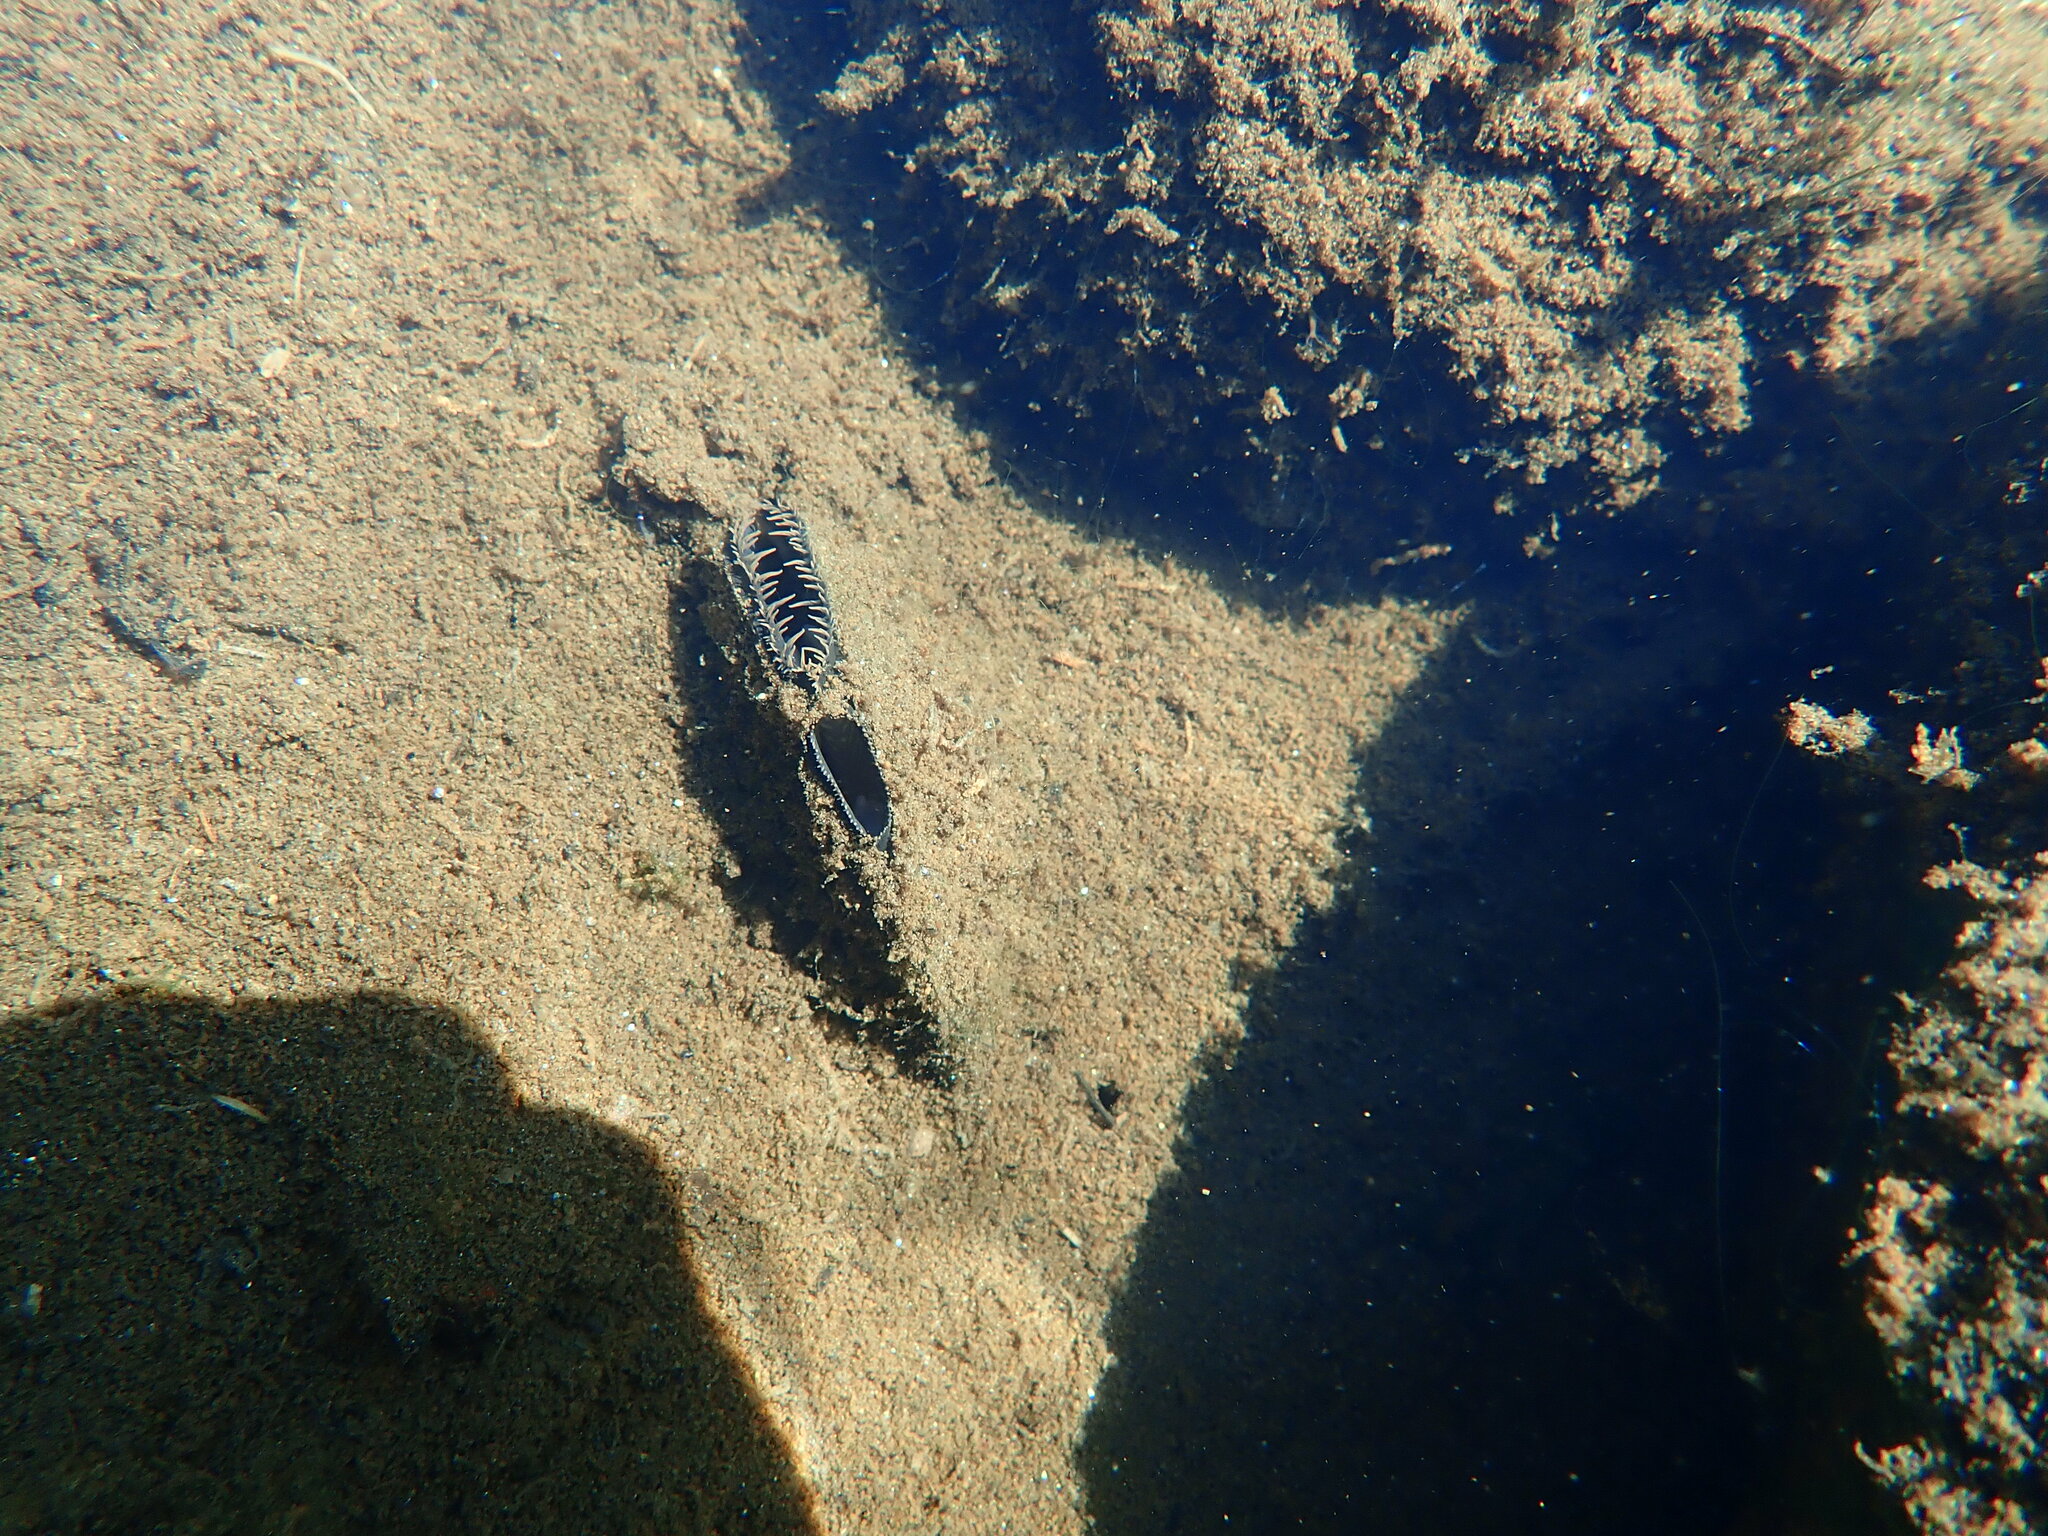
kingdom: Animalia
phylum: Mollusca
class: Bivalvia
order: Unionida
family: Unionidae
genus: Elliptio
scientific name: Elliptio complanata
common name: Eastern elliptio
